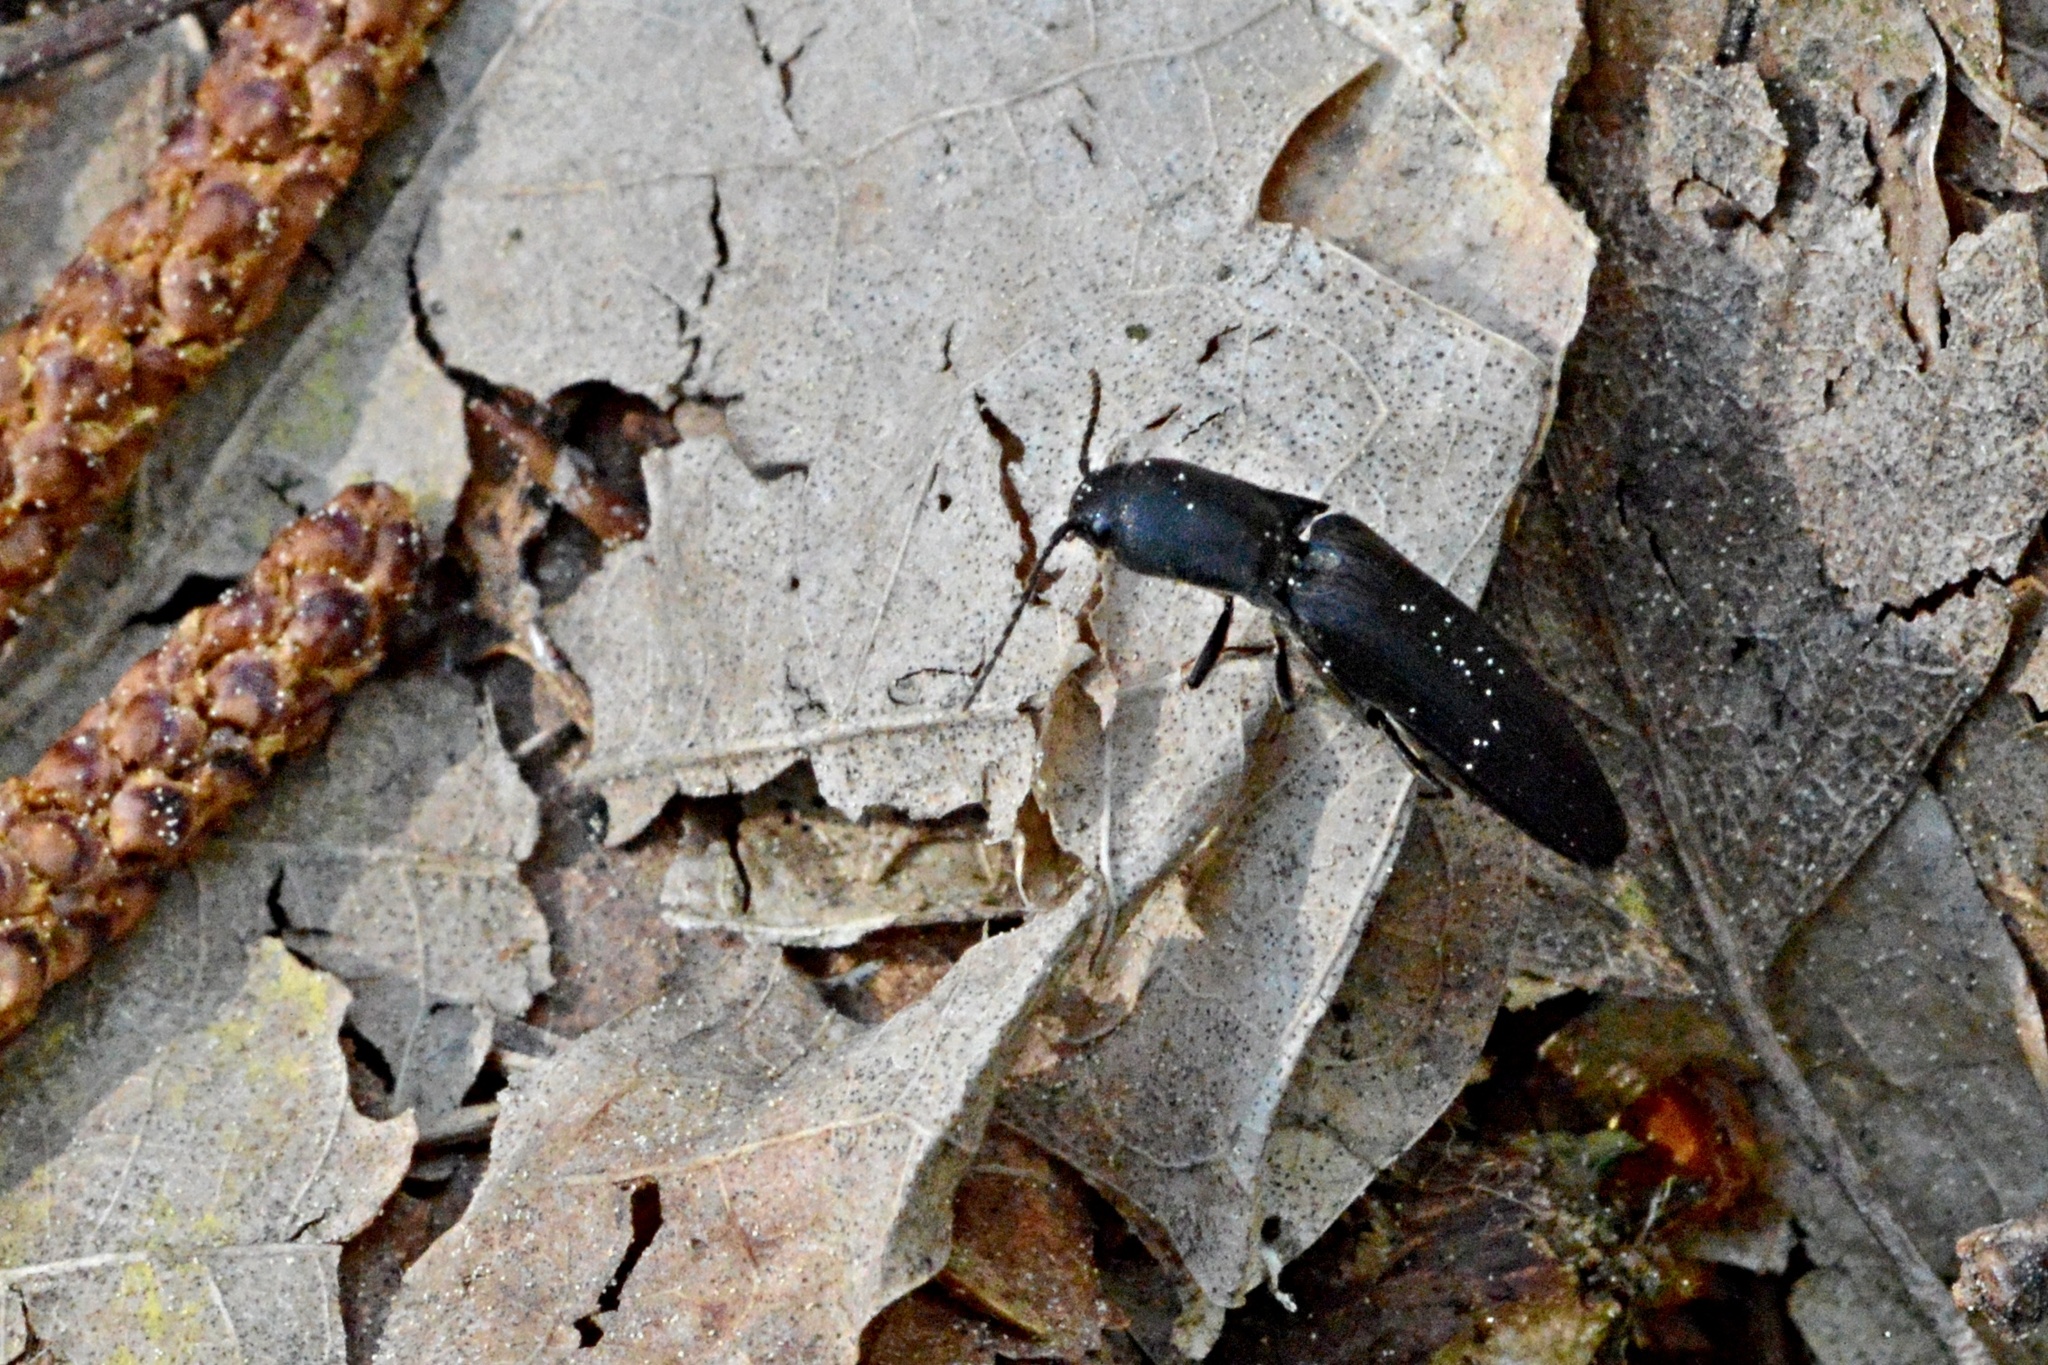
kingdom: Animalia
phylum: Arthropoda
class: Insecta
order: Coleoptera
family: Elateridae
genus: Ectinus
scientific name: Ectinus aterrimus
